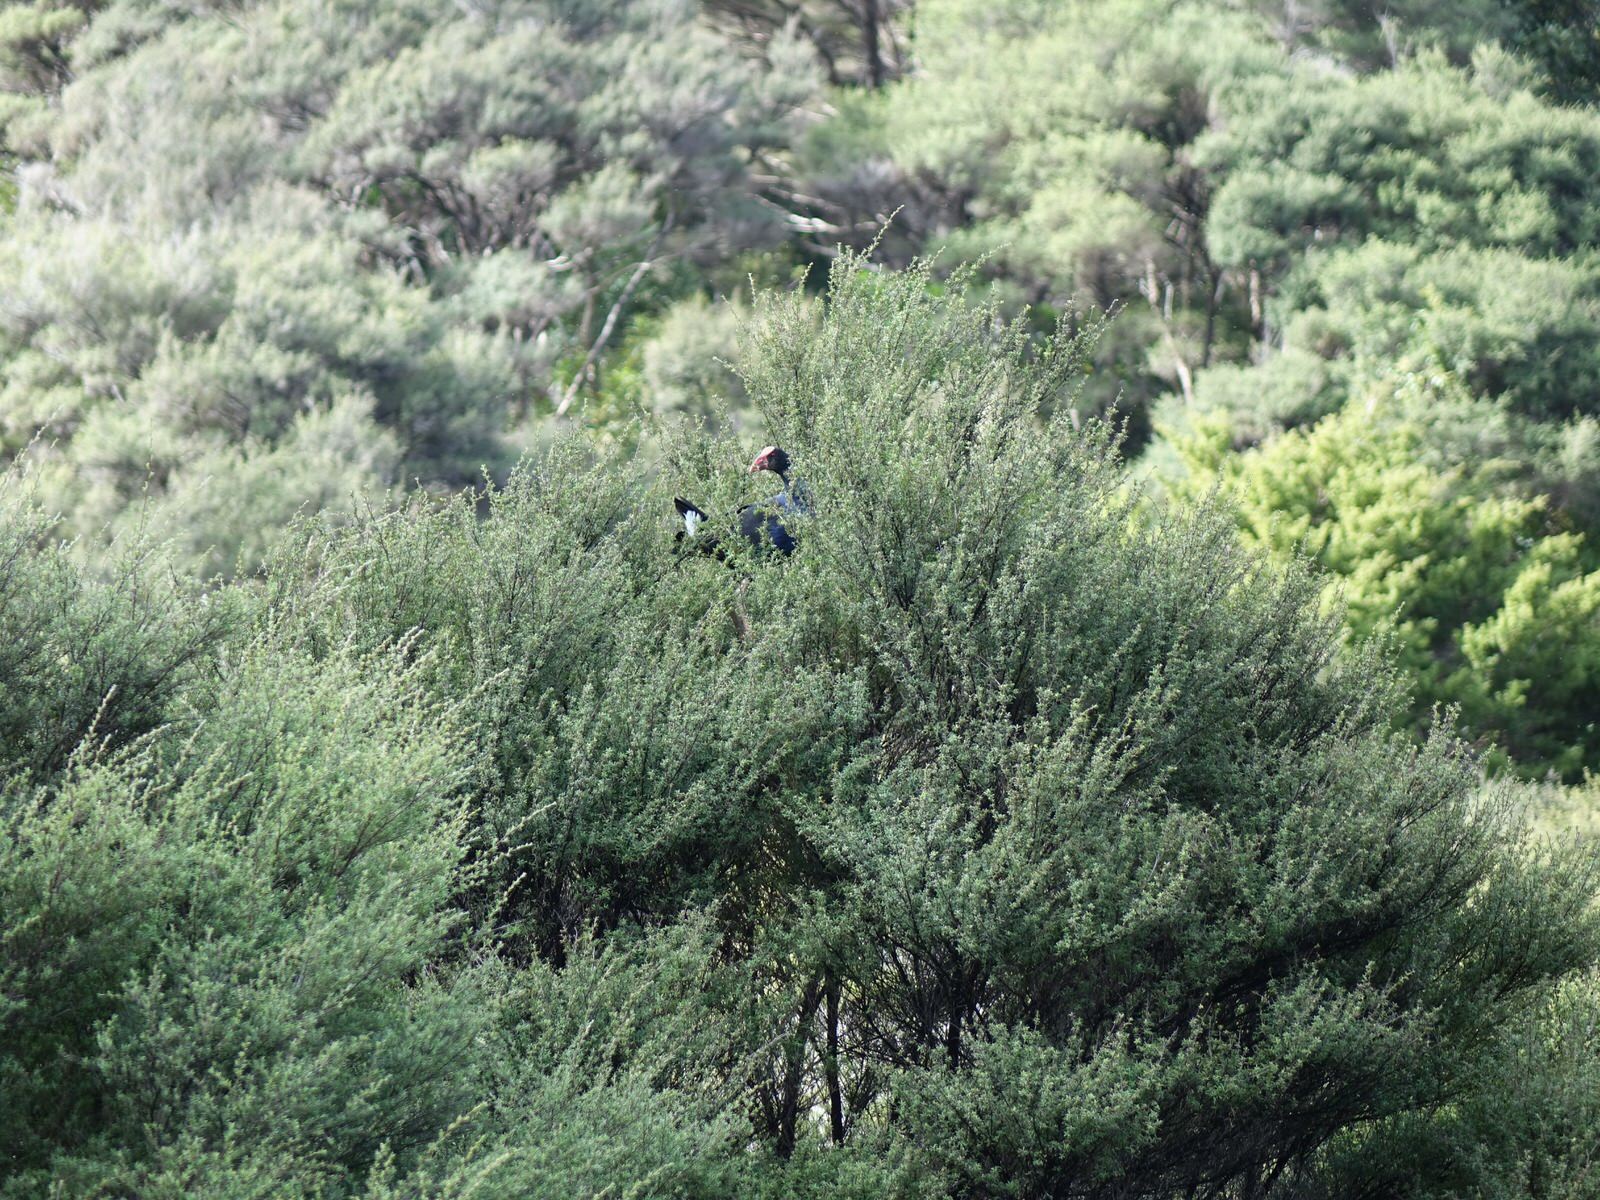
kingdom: Animalia
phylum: Chordata
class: Aves
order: Gruiformes
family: Rallidae
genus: Porphyrio
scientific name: Porphyrio melanotus
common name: Australasian swamphen
